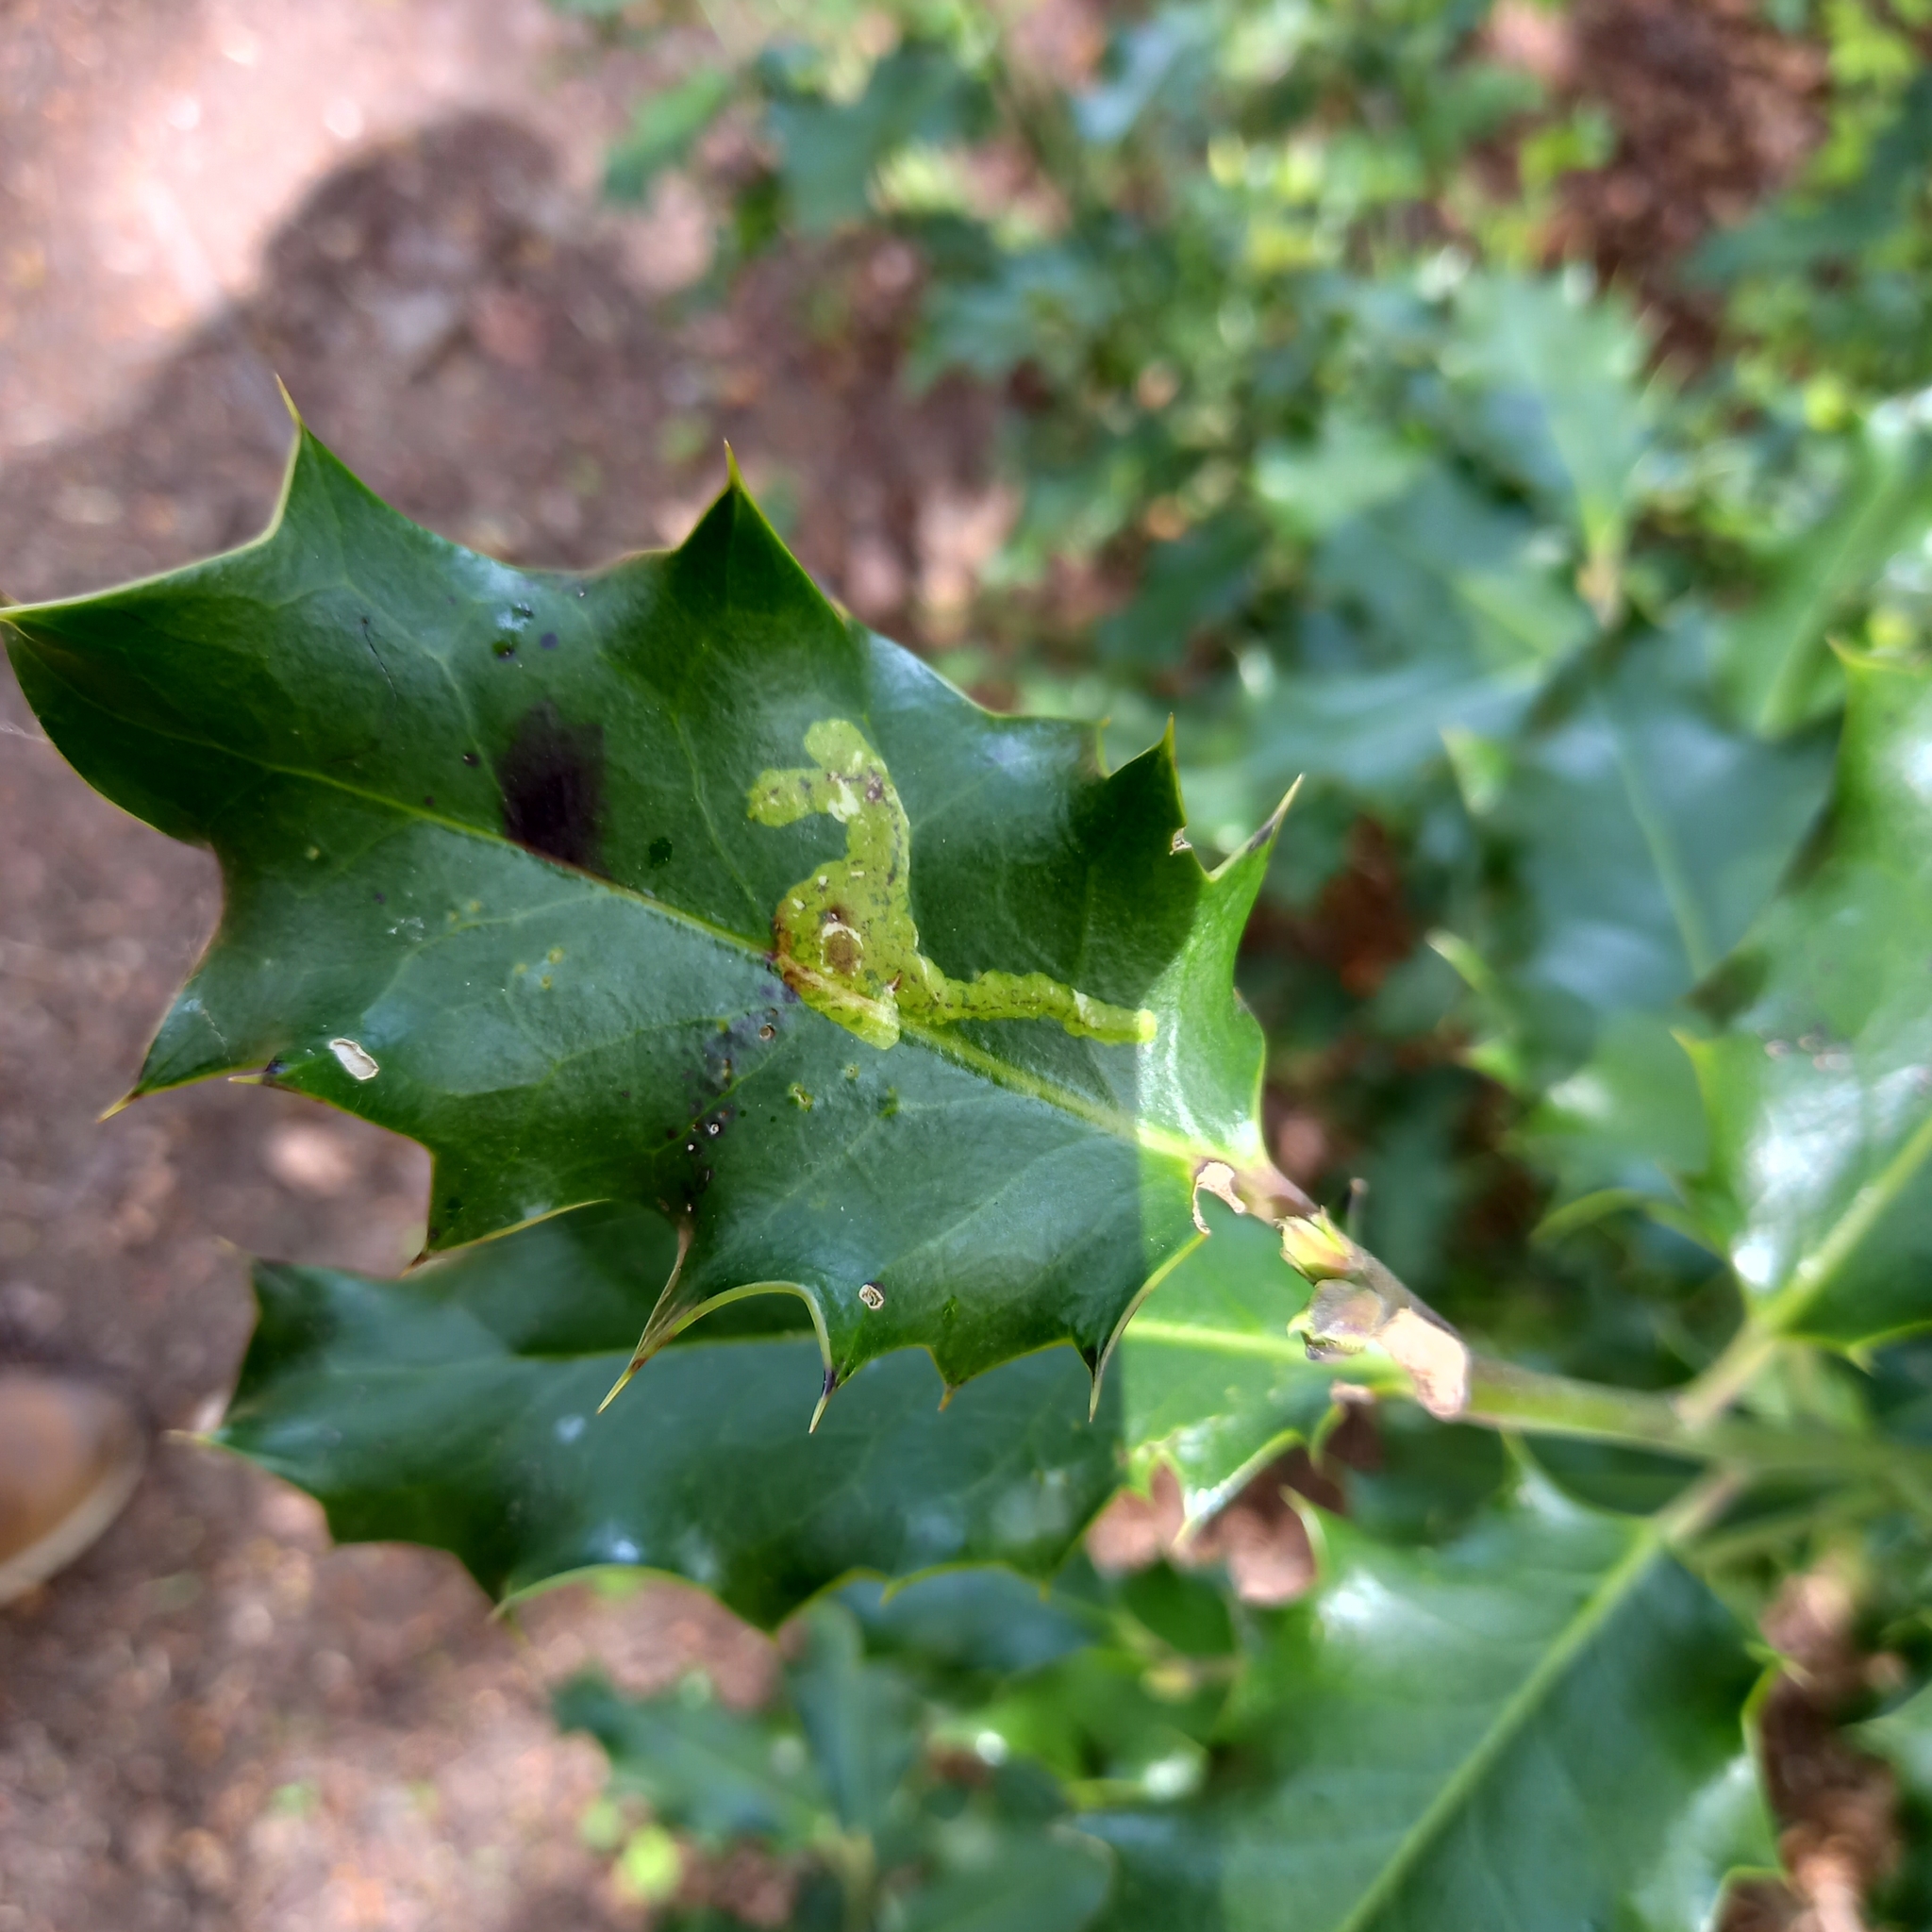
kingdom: Animalia
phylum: Arthropoda
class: Insecta
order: Diptera
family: Agromyzidae
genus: Phytomyza
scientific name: Phytomyza ilicis
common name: Holly leafminer
